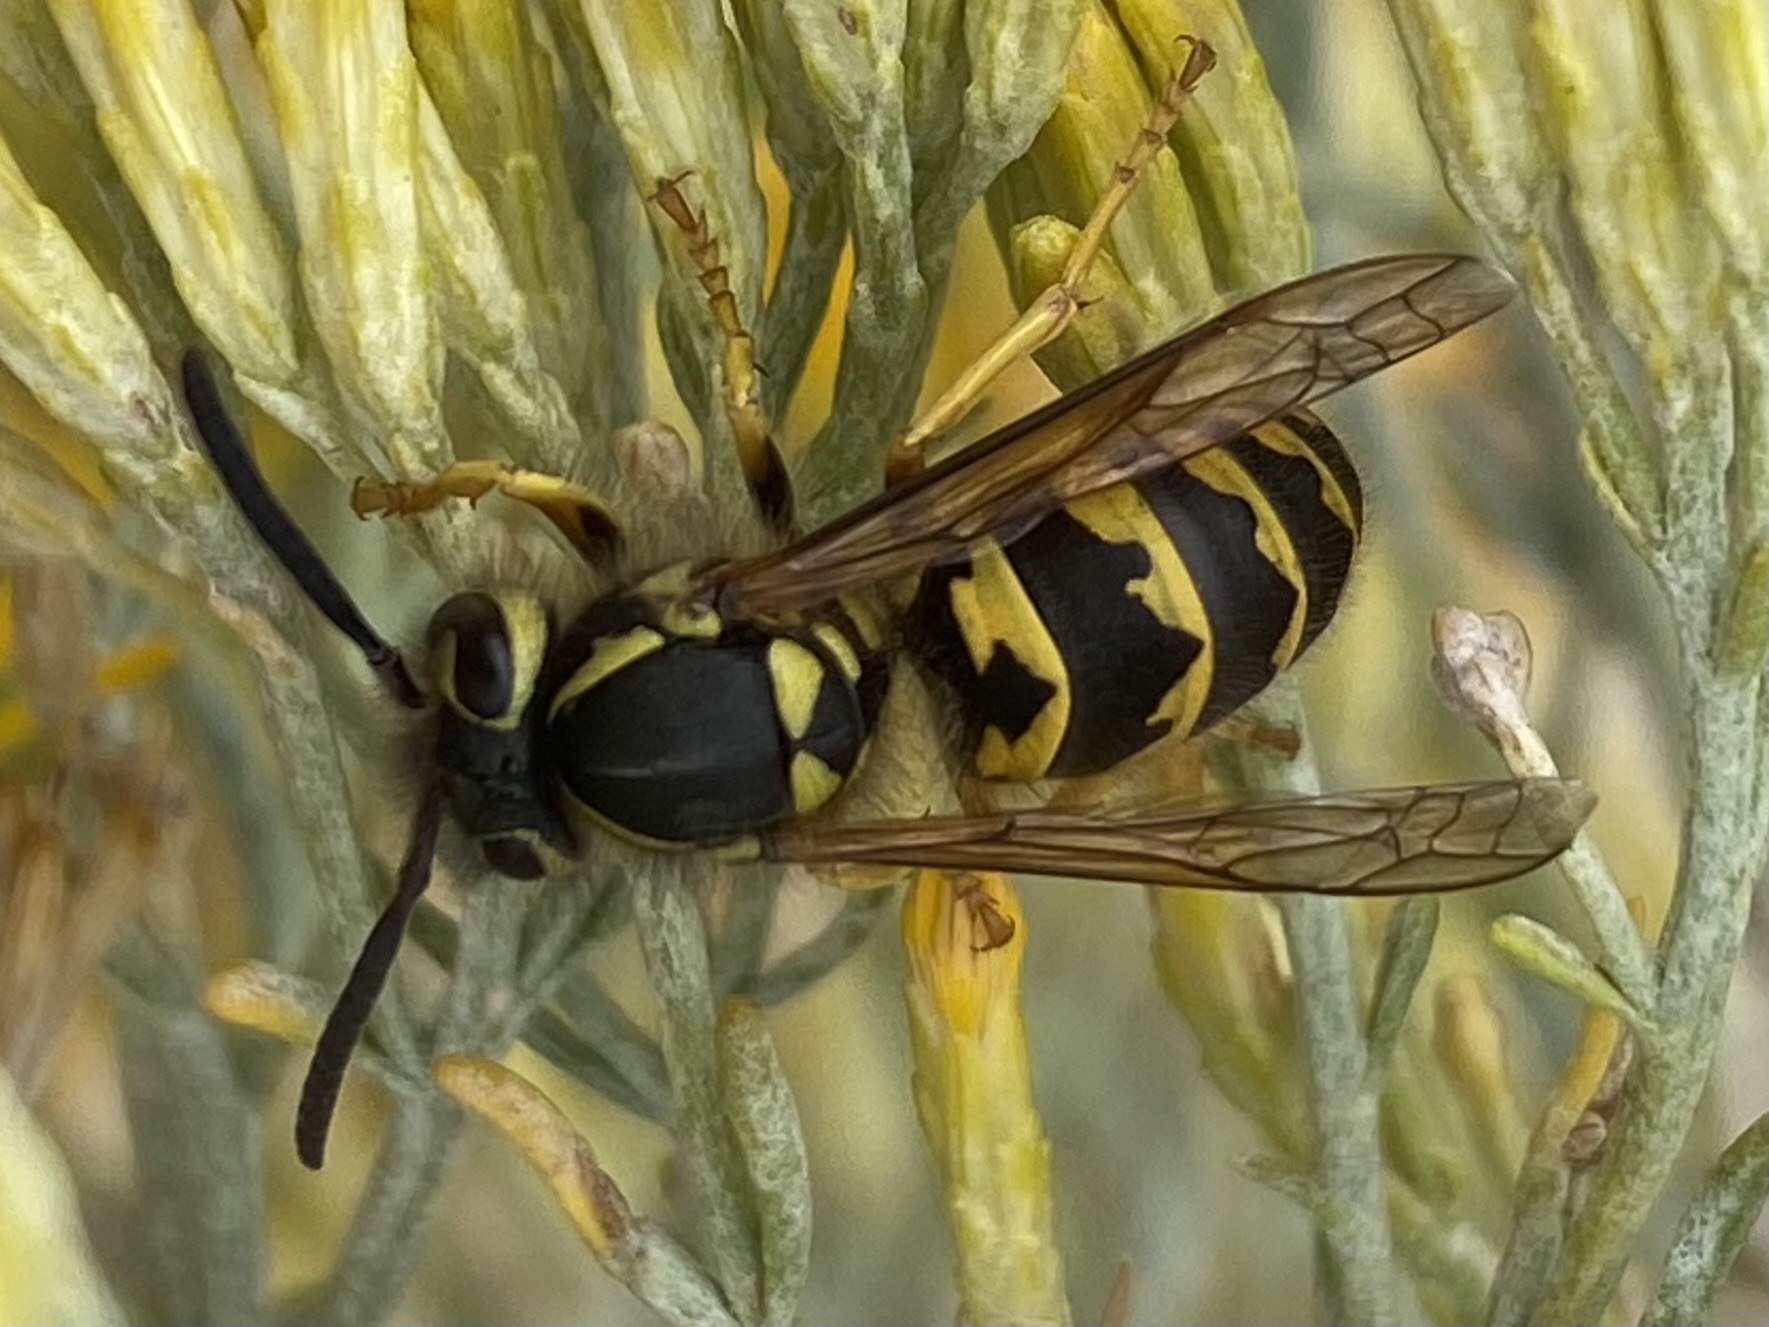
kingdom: Animalia
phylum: Arthropoda
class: Insecta
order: Hymenoptera
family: Vespidae
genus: Vespula
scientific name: Vespula pensylvanica
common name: Western yellowjacket
